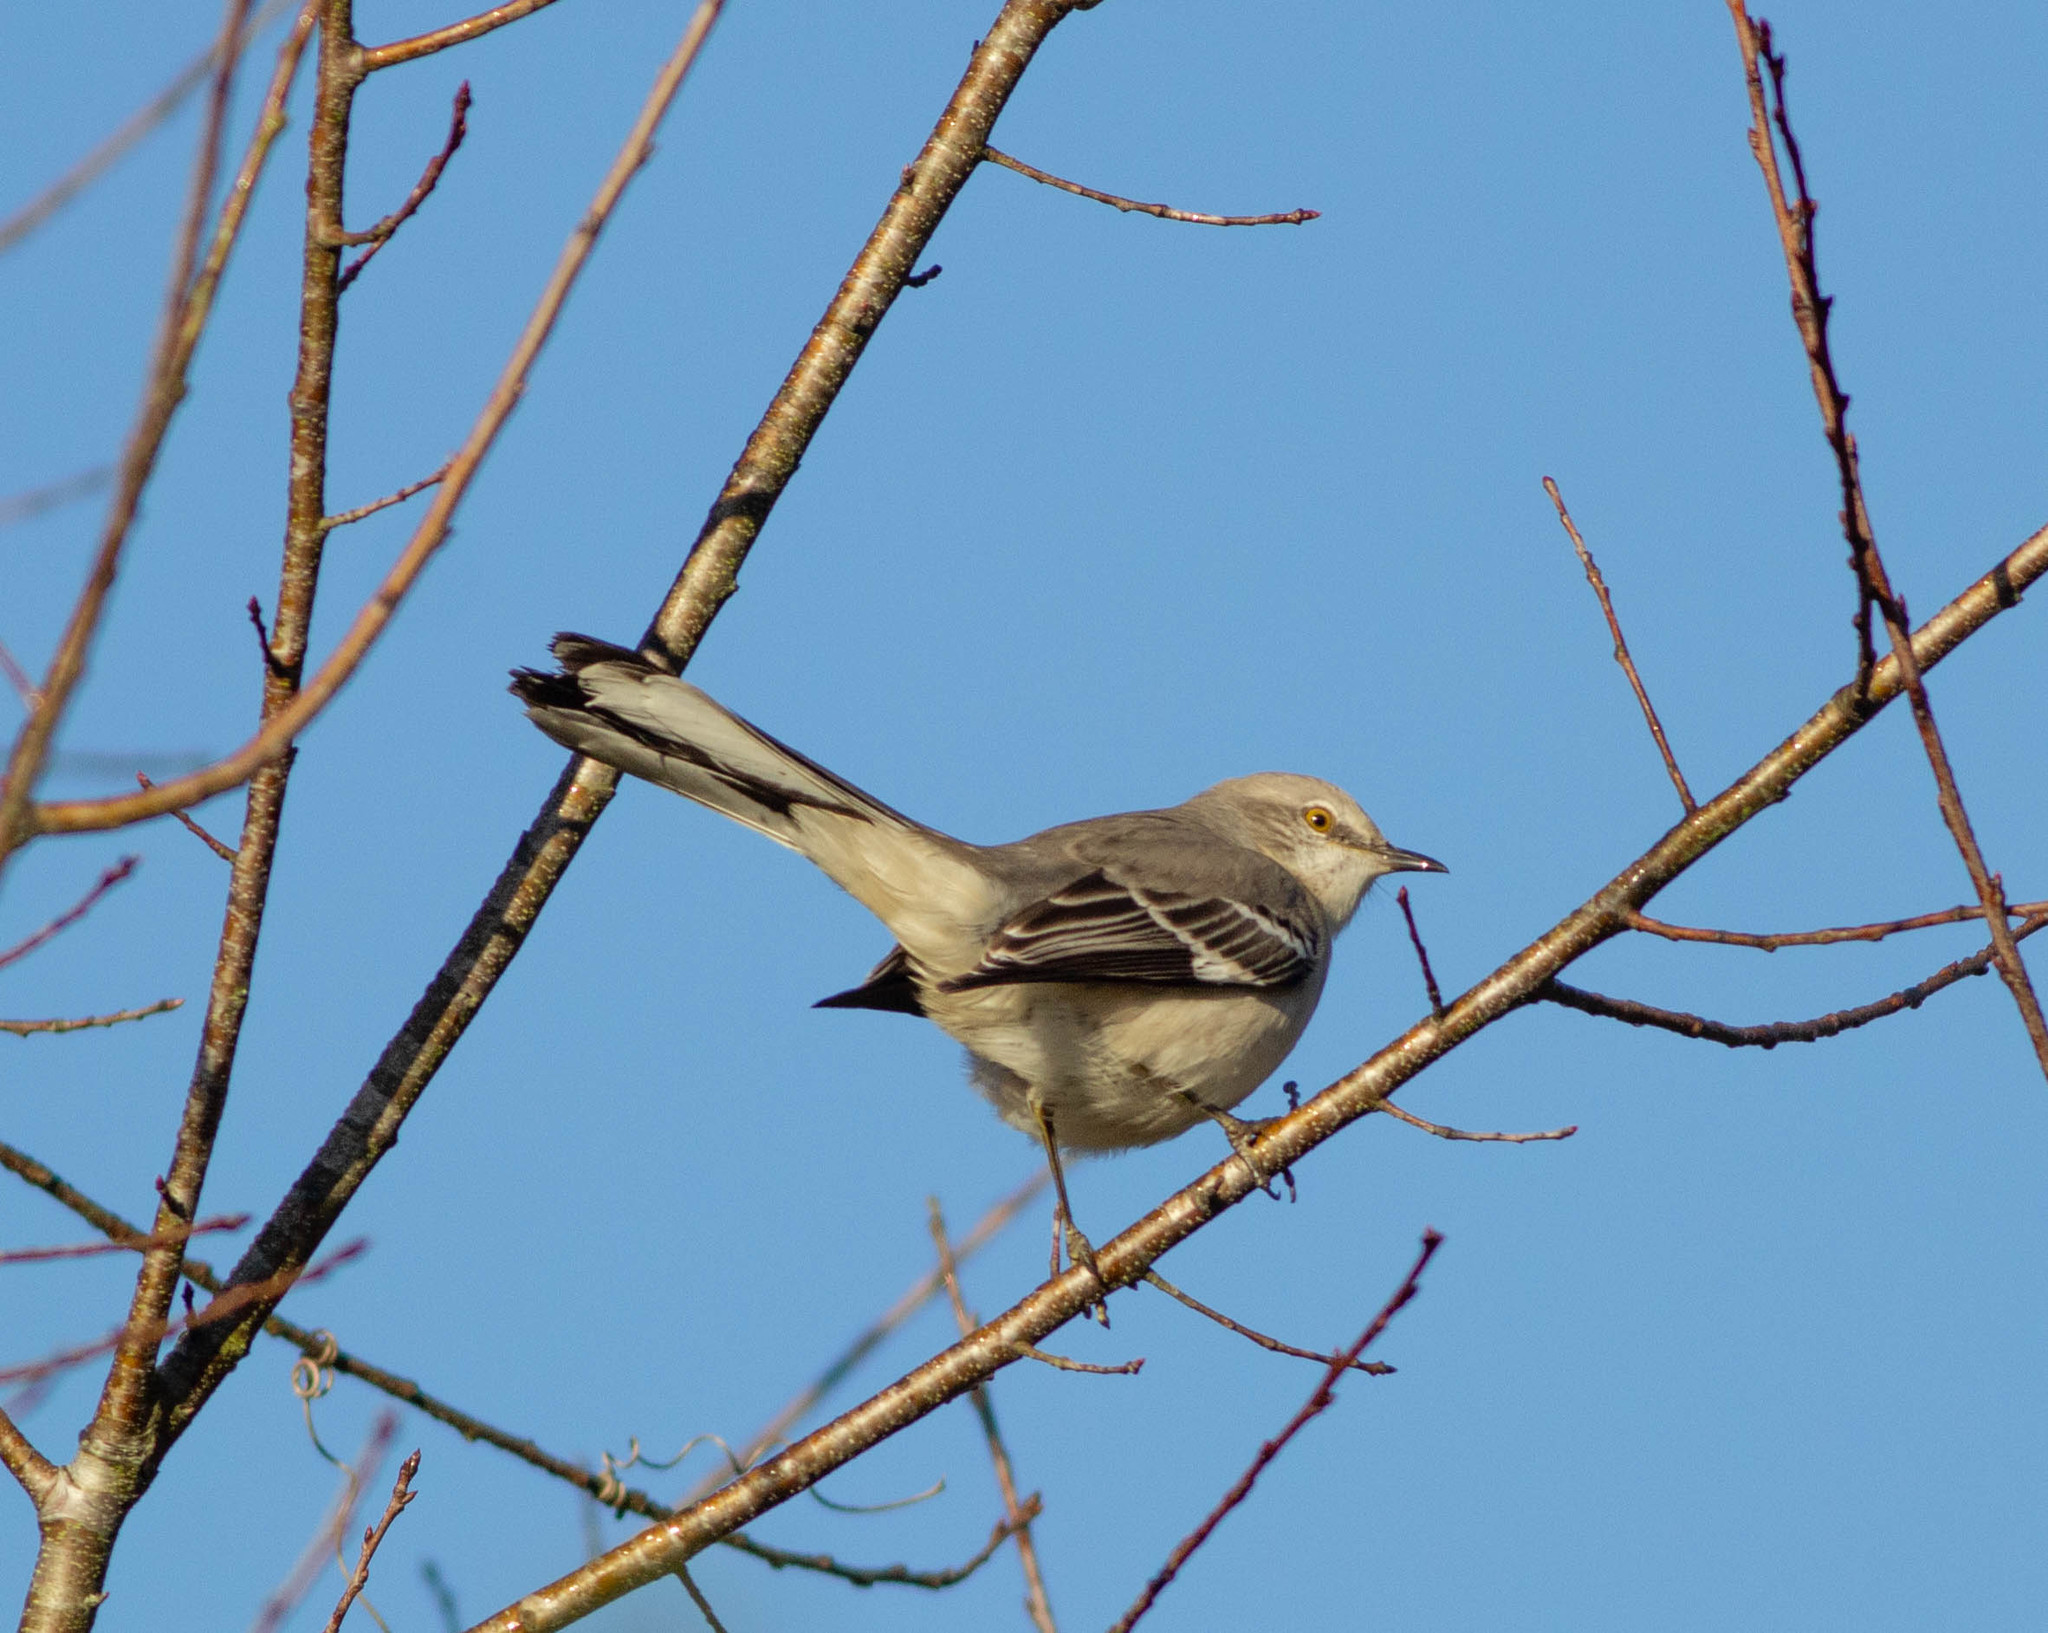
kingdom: Animalia
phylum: Chordata
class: Aves
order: Passeriformes
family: Mimidae
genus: Mimus
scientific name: Mimus polyglottos
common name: Northern mockingbird
